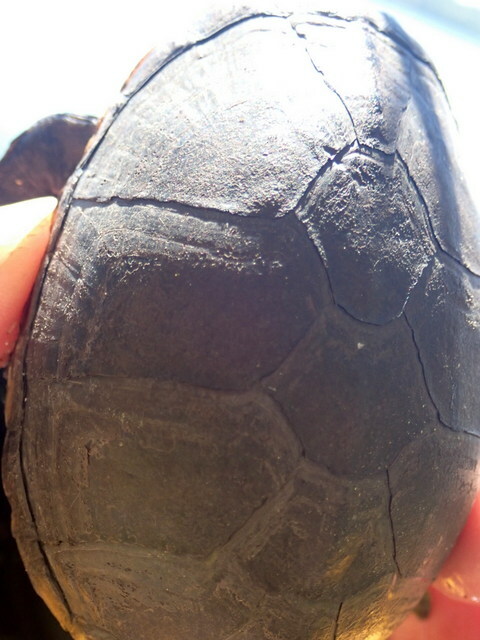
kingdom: Animalia
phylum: Chordata
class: Testudines
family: Kinosternidae
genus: Sternotherus
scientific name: Sternotherus odoratus
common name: Common musk turtle
